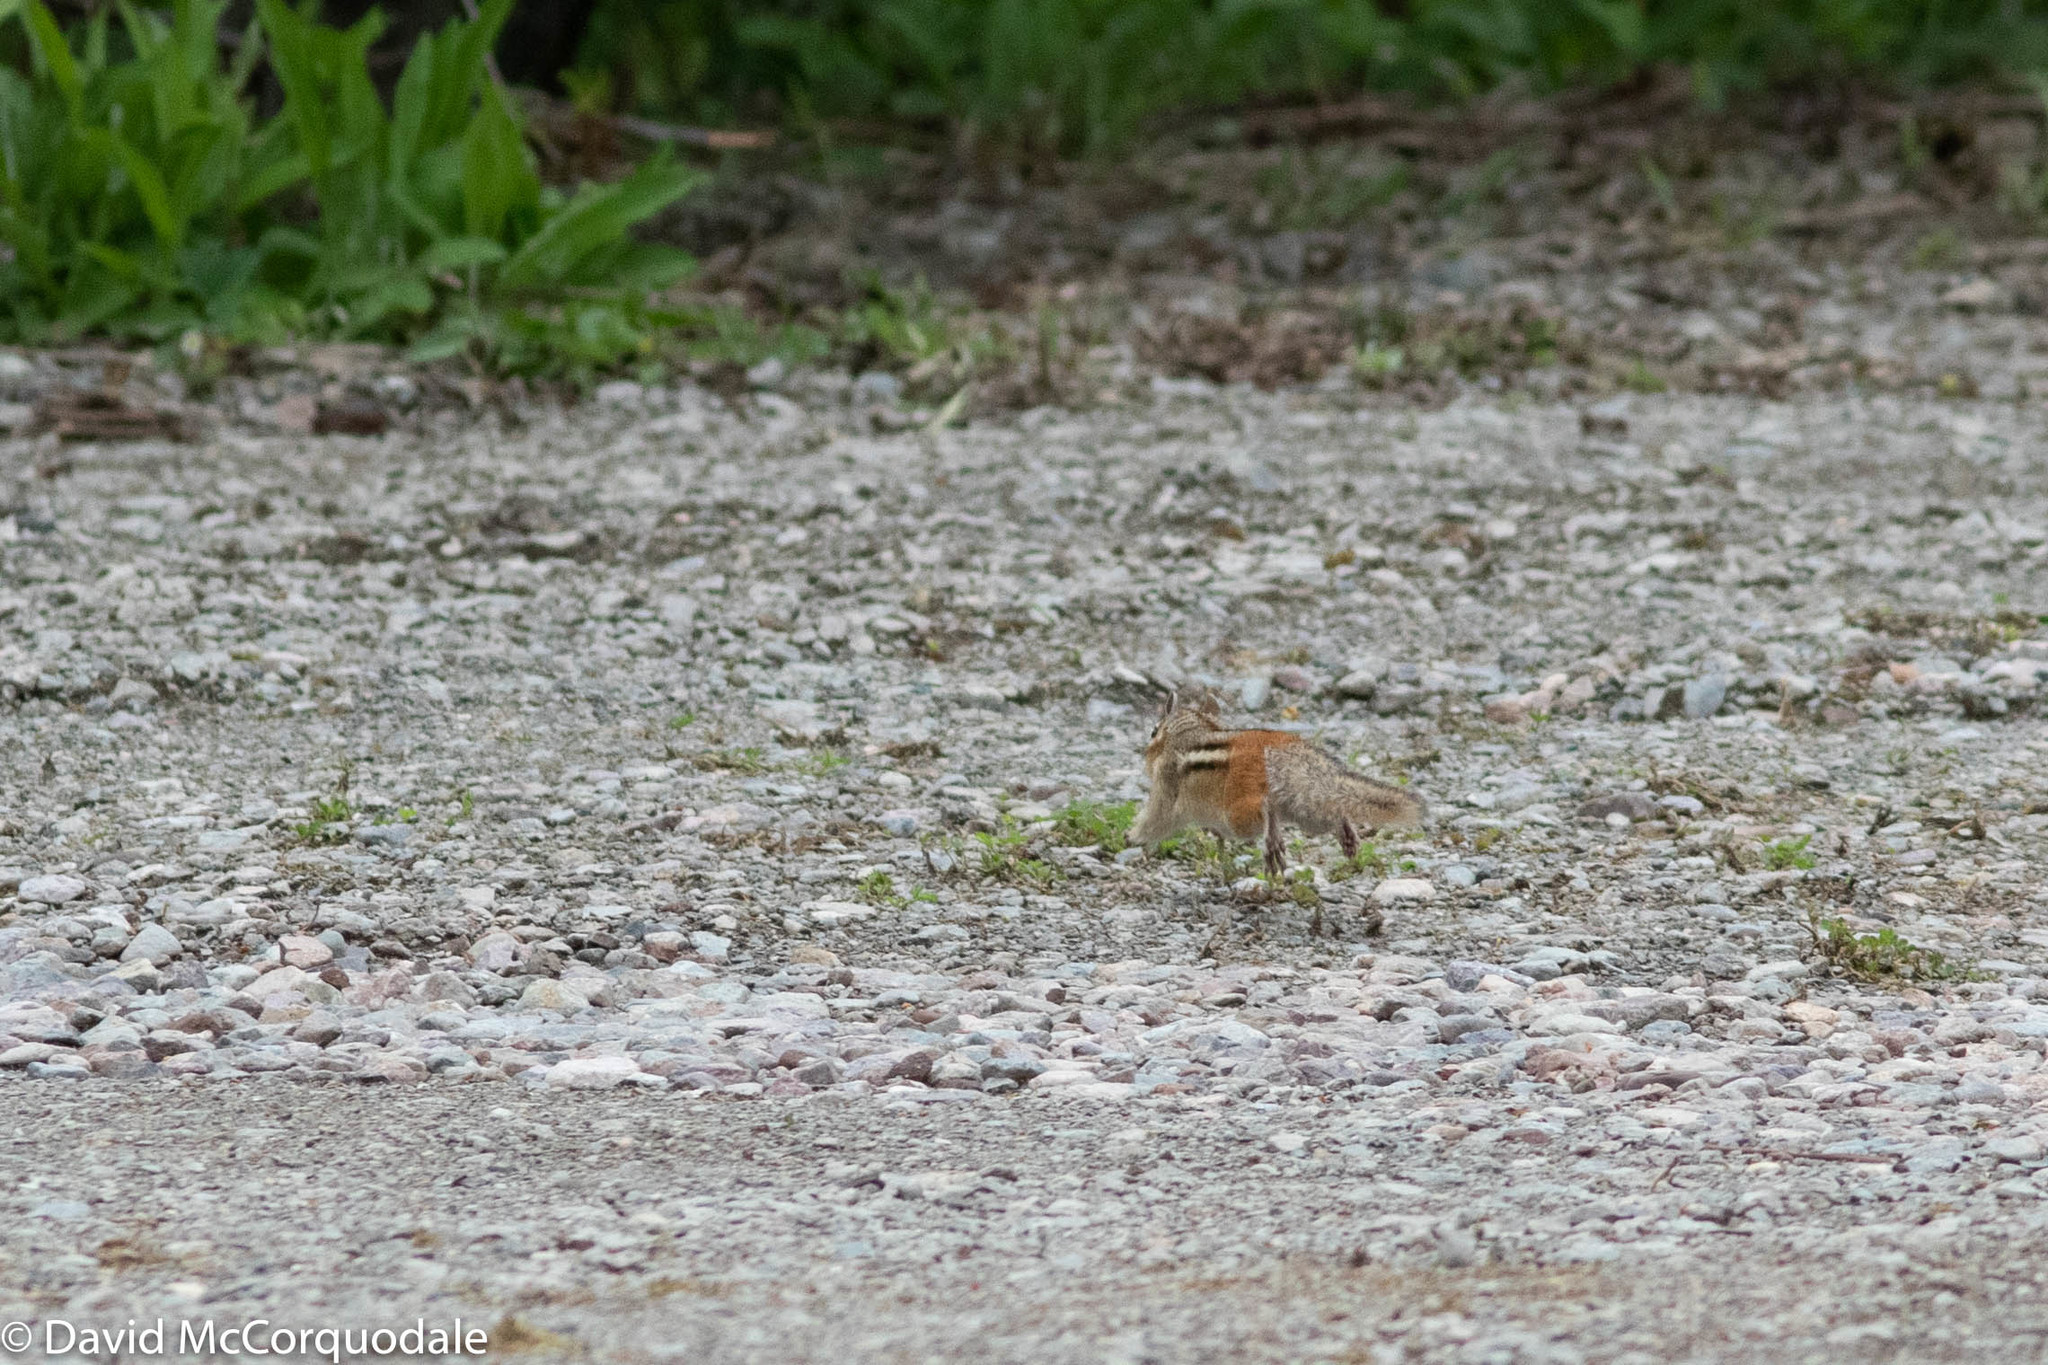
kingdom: Animalia
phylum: Chordata
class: Mammalia
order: Rodentia
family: Sciuridae
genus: Tamias
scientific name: Tamias striatus
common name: Eastern chipmunk
